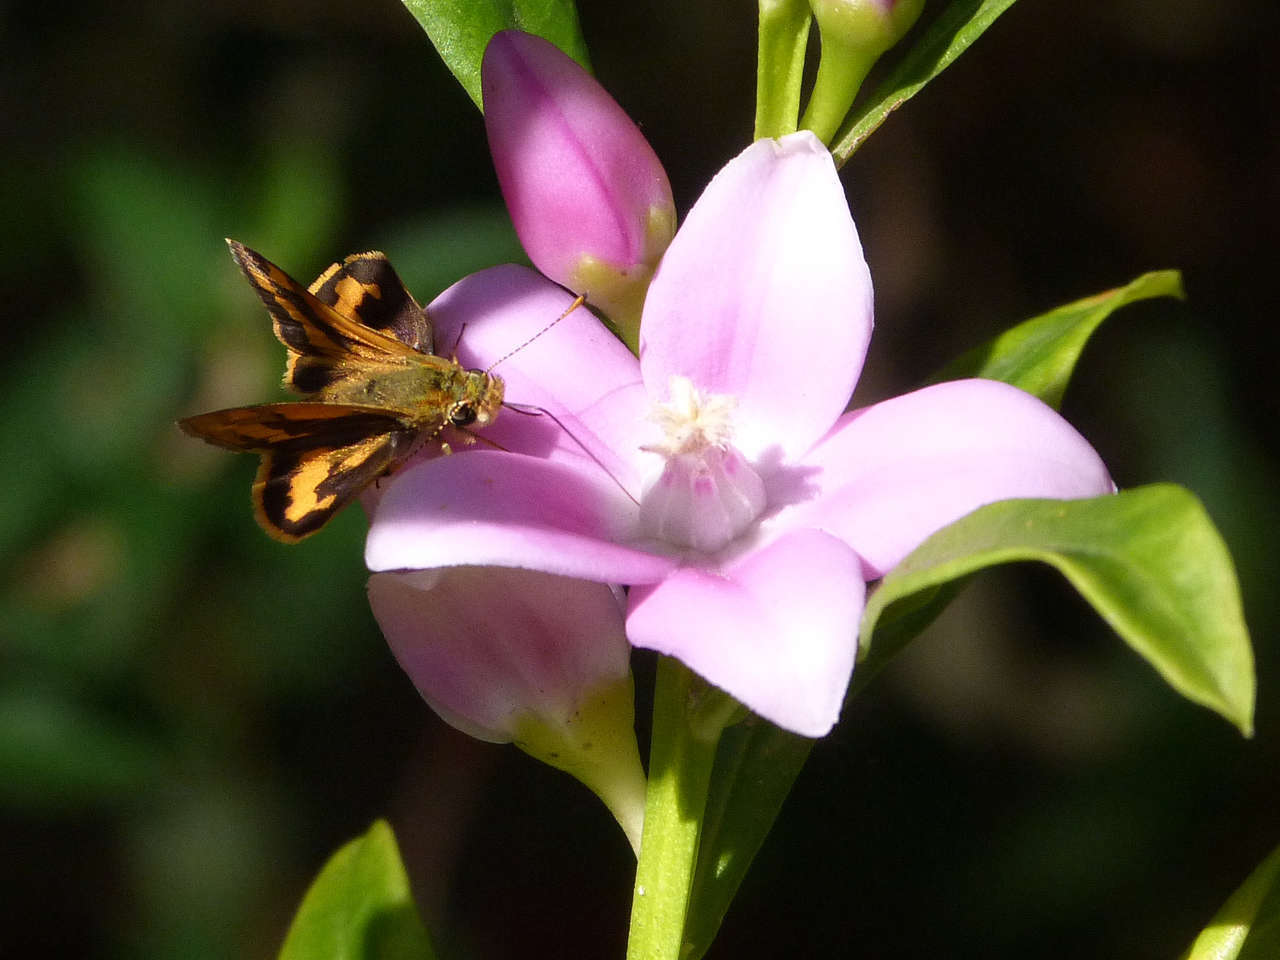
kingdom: Animalia
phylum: Arthropoda
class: Insecta
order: Lepidoptera
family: Hesperiidae
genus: Ocybadistes
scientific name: Ocybadistes walkeri
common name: Yellow-banded dart
